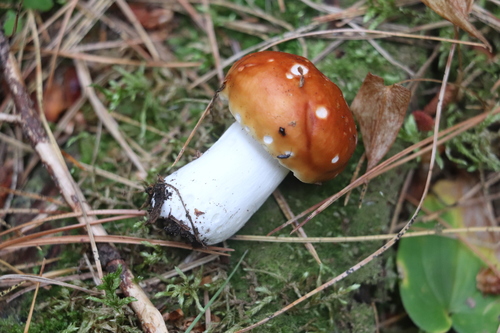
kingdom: Fungi
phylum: Basidiomycota
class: Agaricomycetes
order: Russulales
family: Russulaceae
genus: Russula
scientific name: Russula sanguinea
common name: Bloody brittlegill
